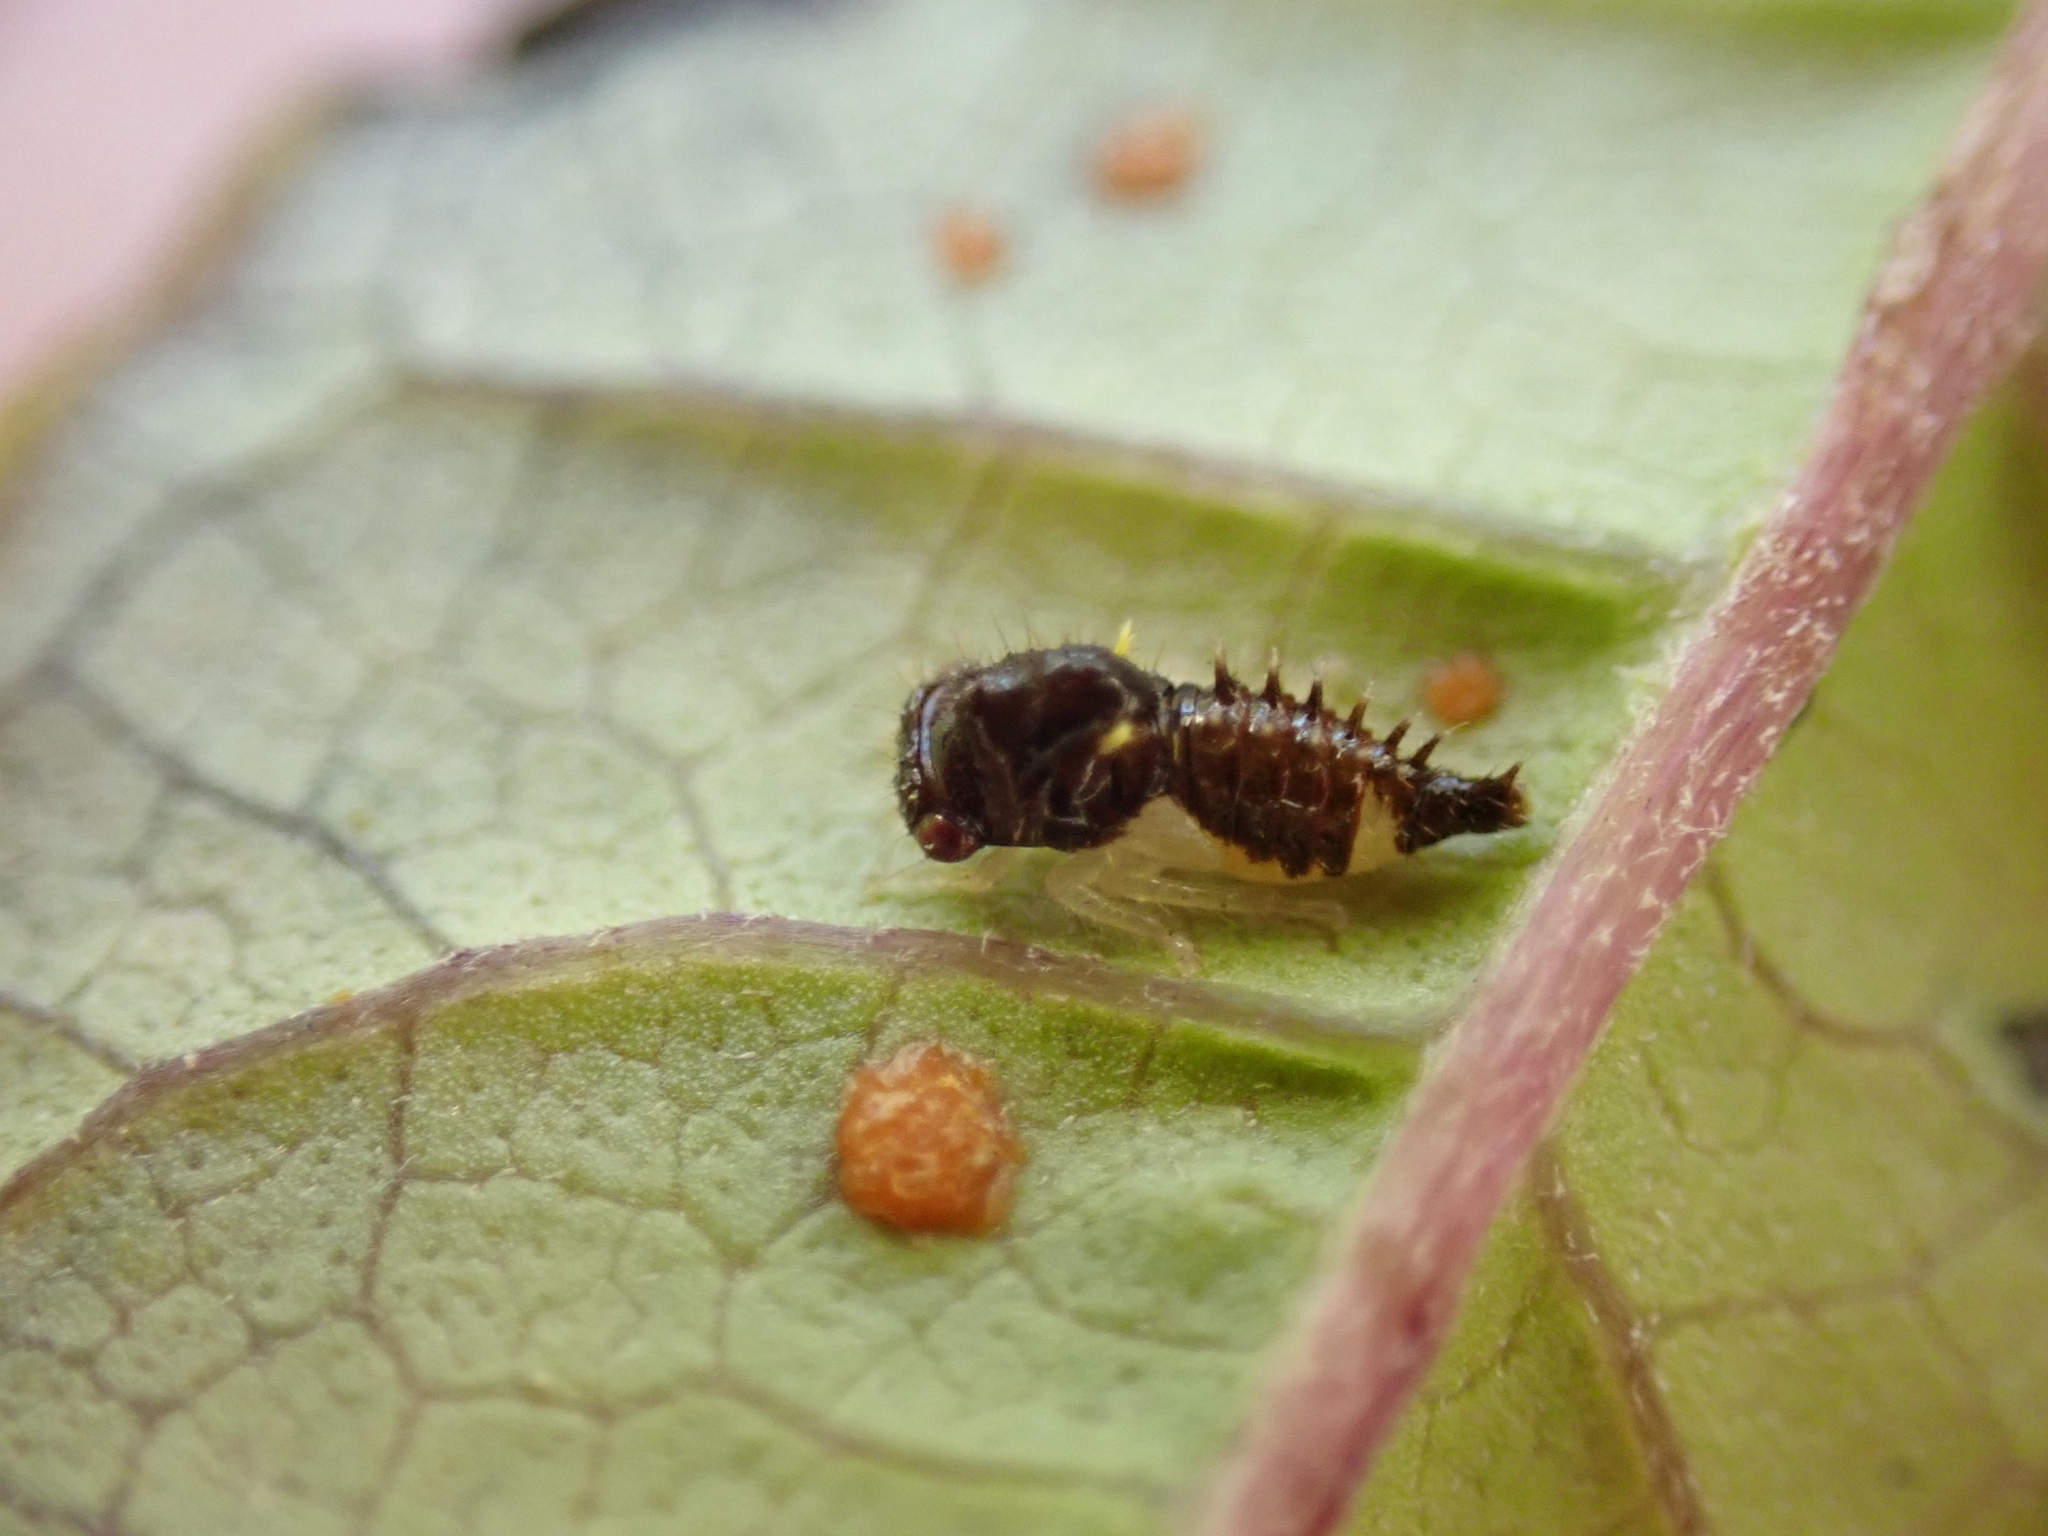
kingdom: Animalia
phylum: Arthropoda
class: Insecta
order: Hemiptera
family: Membracidae
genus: Publilia
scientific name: Publilia concava
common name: Aster treehopper
